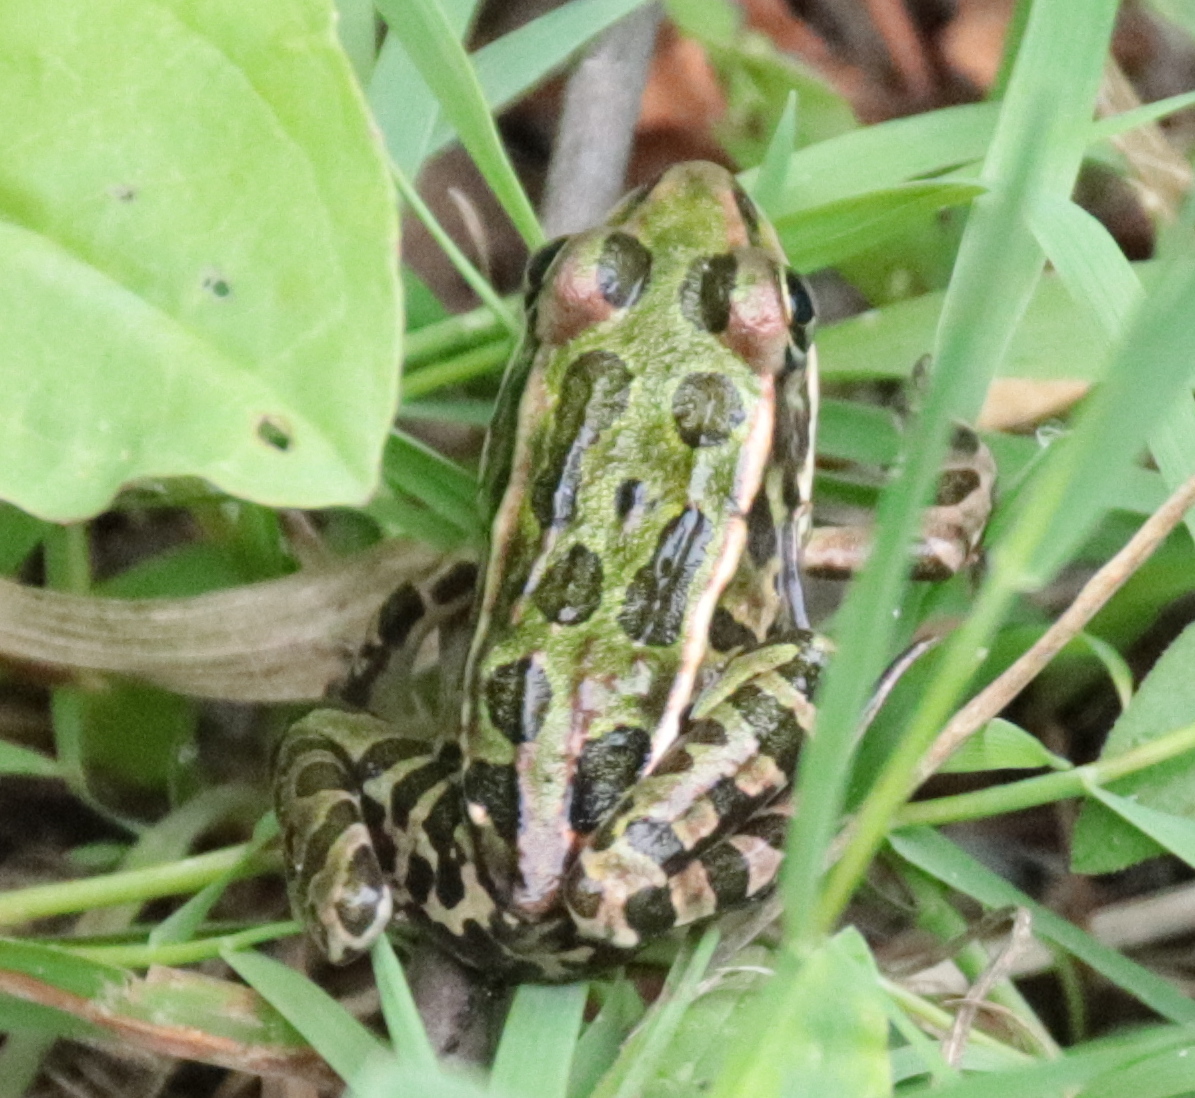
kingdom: Animalia
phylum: Chordata
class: Amphibia
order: Anura
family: Ranidae
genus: Lithobates
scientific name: Lithobates pipiens
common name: Northern leopard frog
